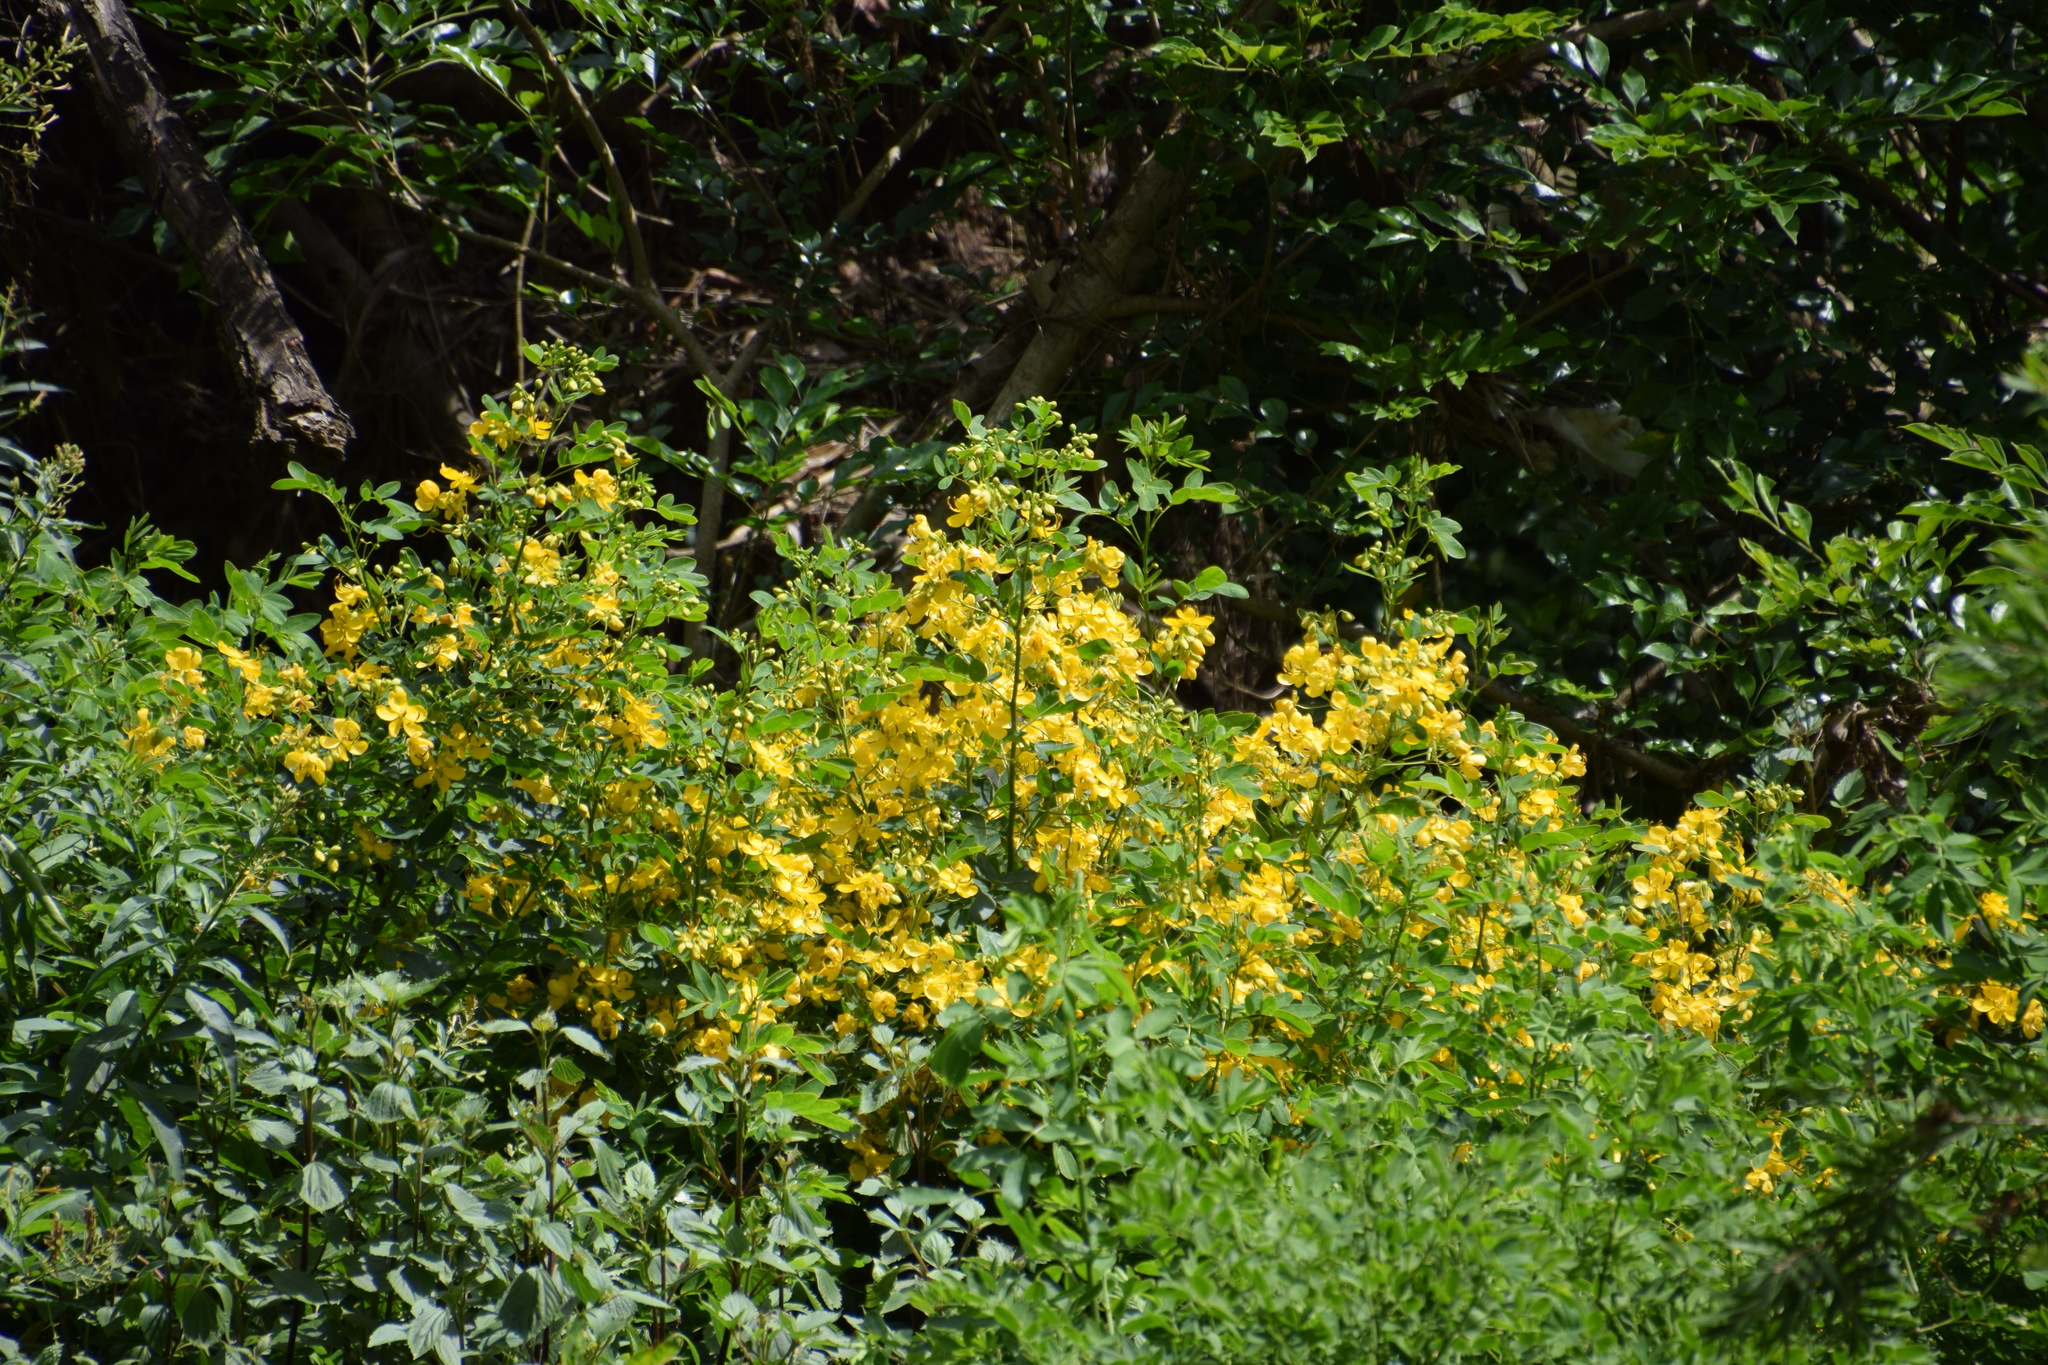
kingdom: Plantae
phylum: Tracheophyta
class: Magnoliopsida
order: Fabales
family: Fabaceae
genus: Senna
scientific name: Senna pendula
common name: Easter cassia
